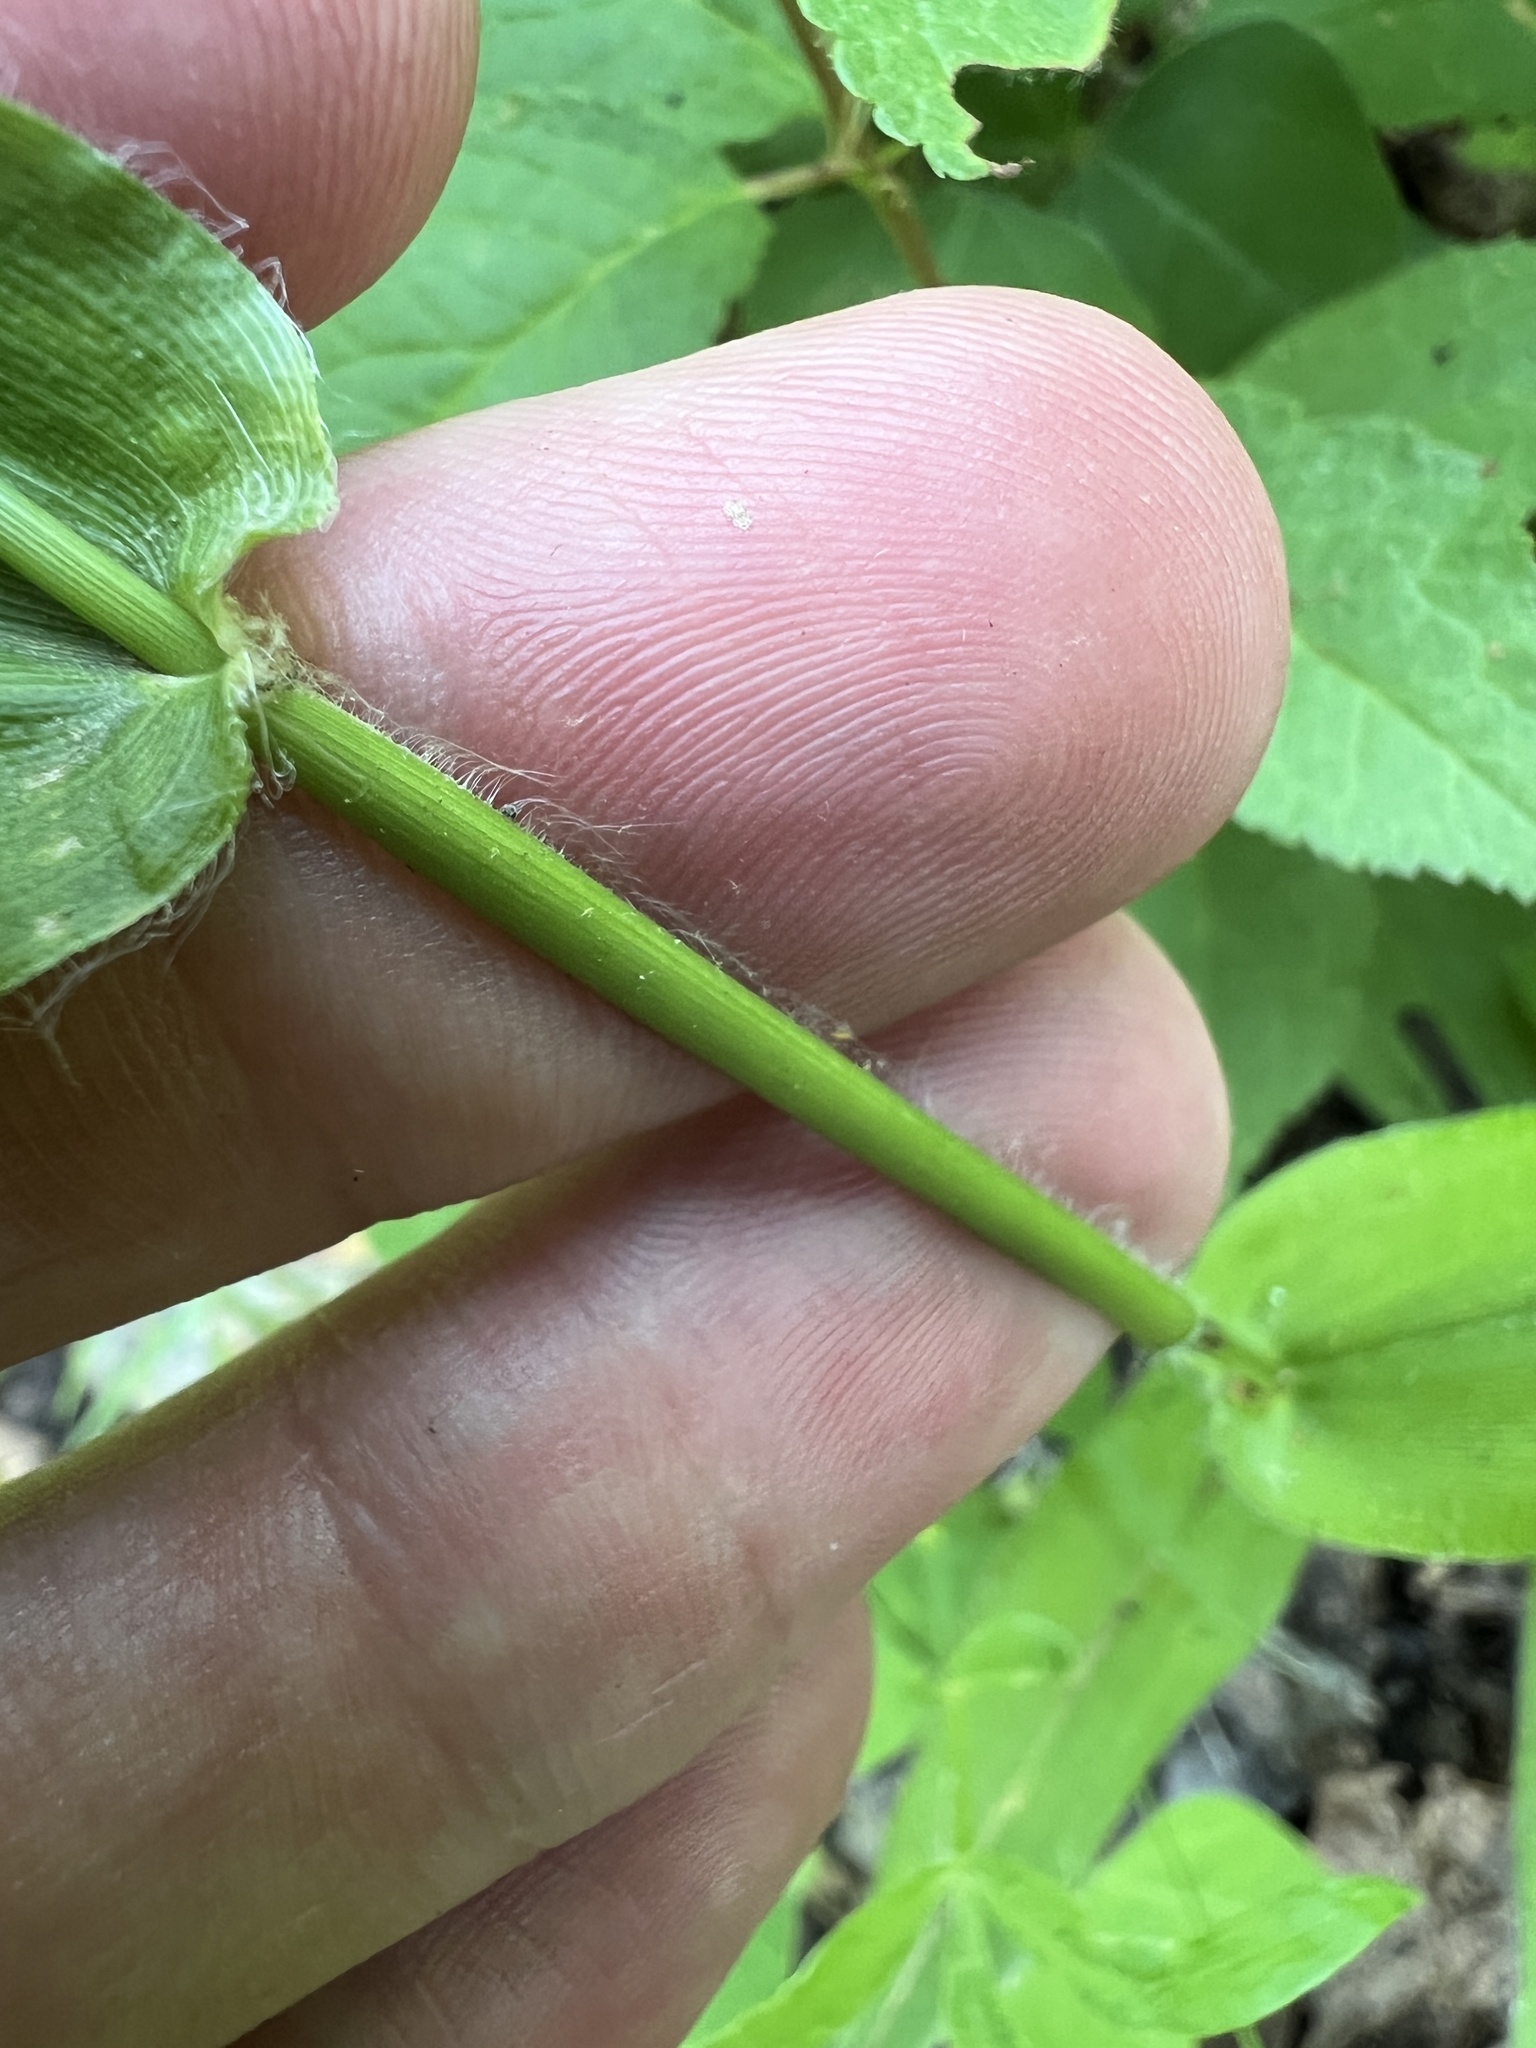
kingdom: Plantae
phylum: Tracheophyta
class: Liliopsida
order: Poales
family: Poaceae
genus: Dichanthelium
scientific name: Dichanthelium latifolium
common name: Broad-leaved panicgrass
